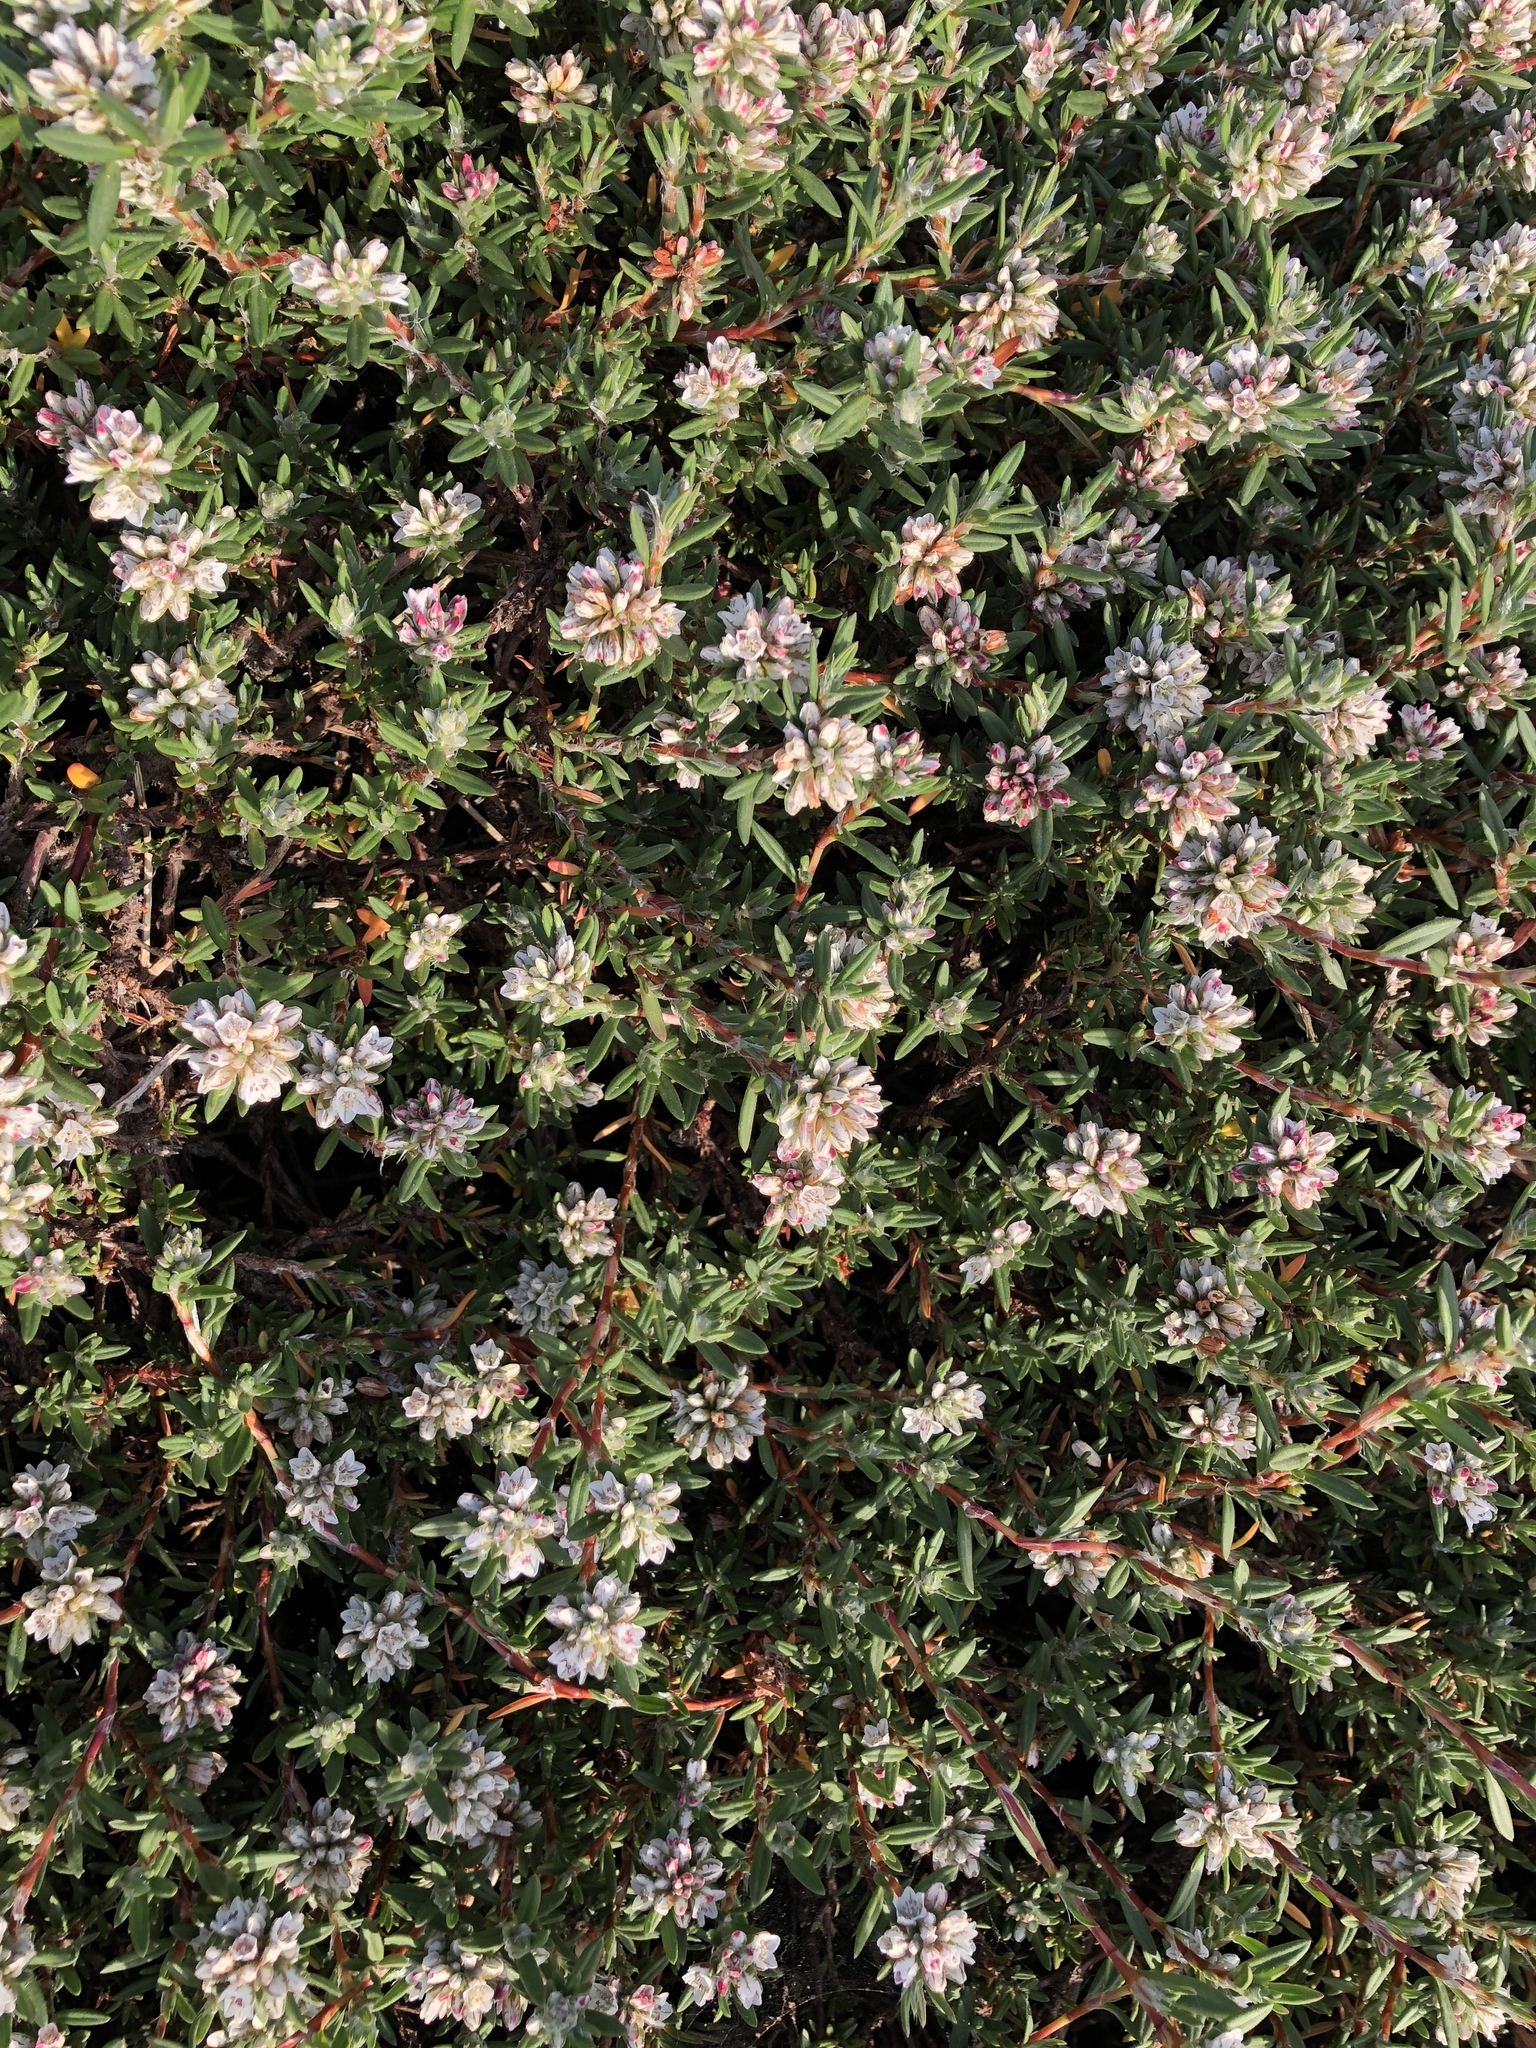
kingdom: Plantae
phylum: Tracheophyta
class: Magnoliopsida
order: Caryophyllales
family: Polygonaceae
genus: Polygonum
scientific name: Polygonum paronychia
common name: Dune knotweed
